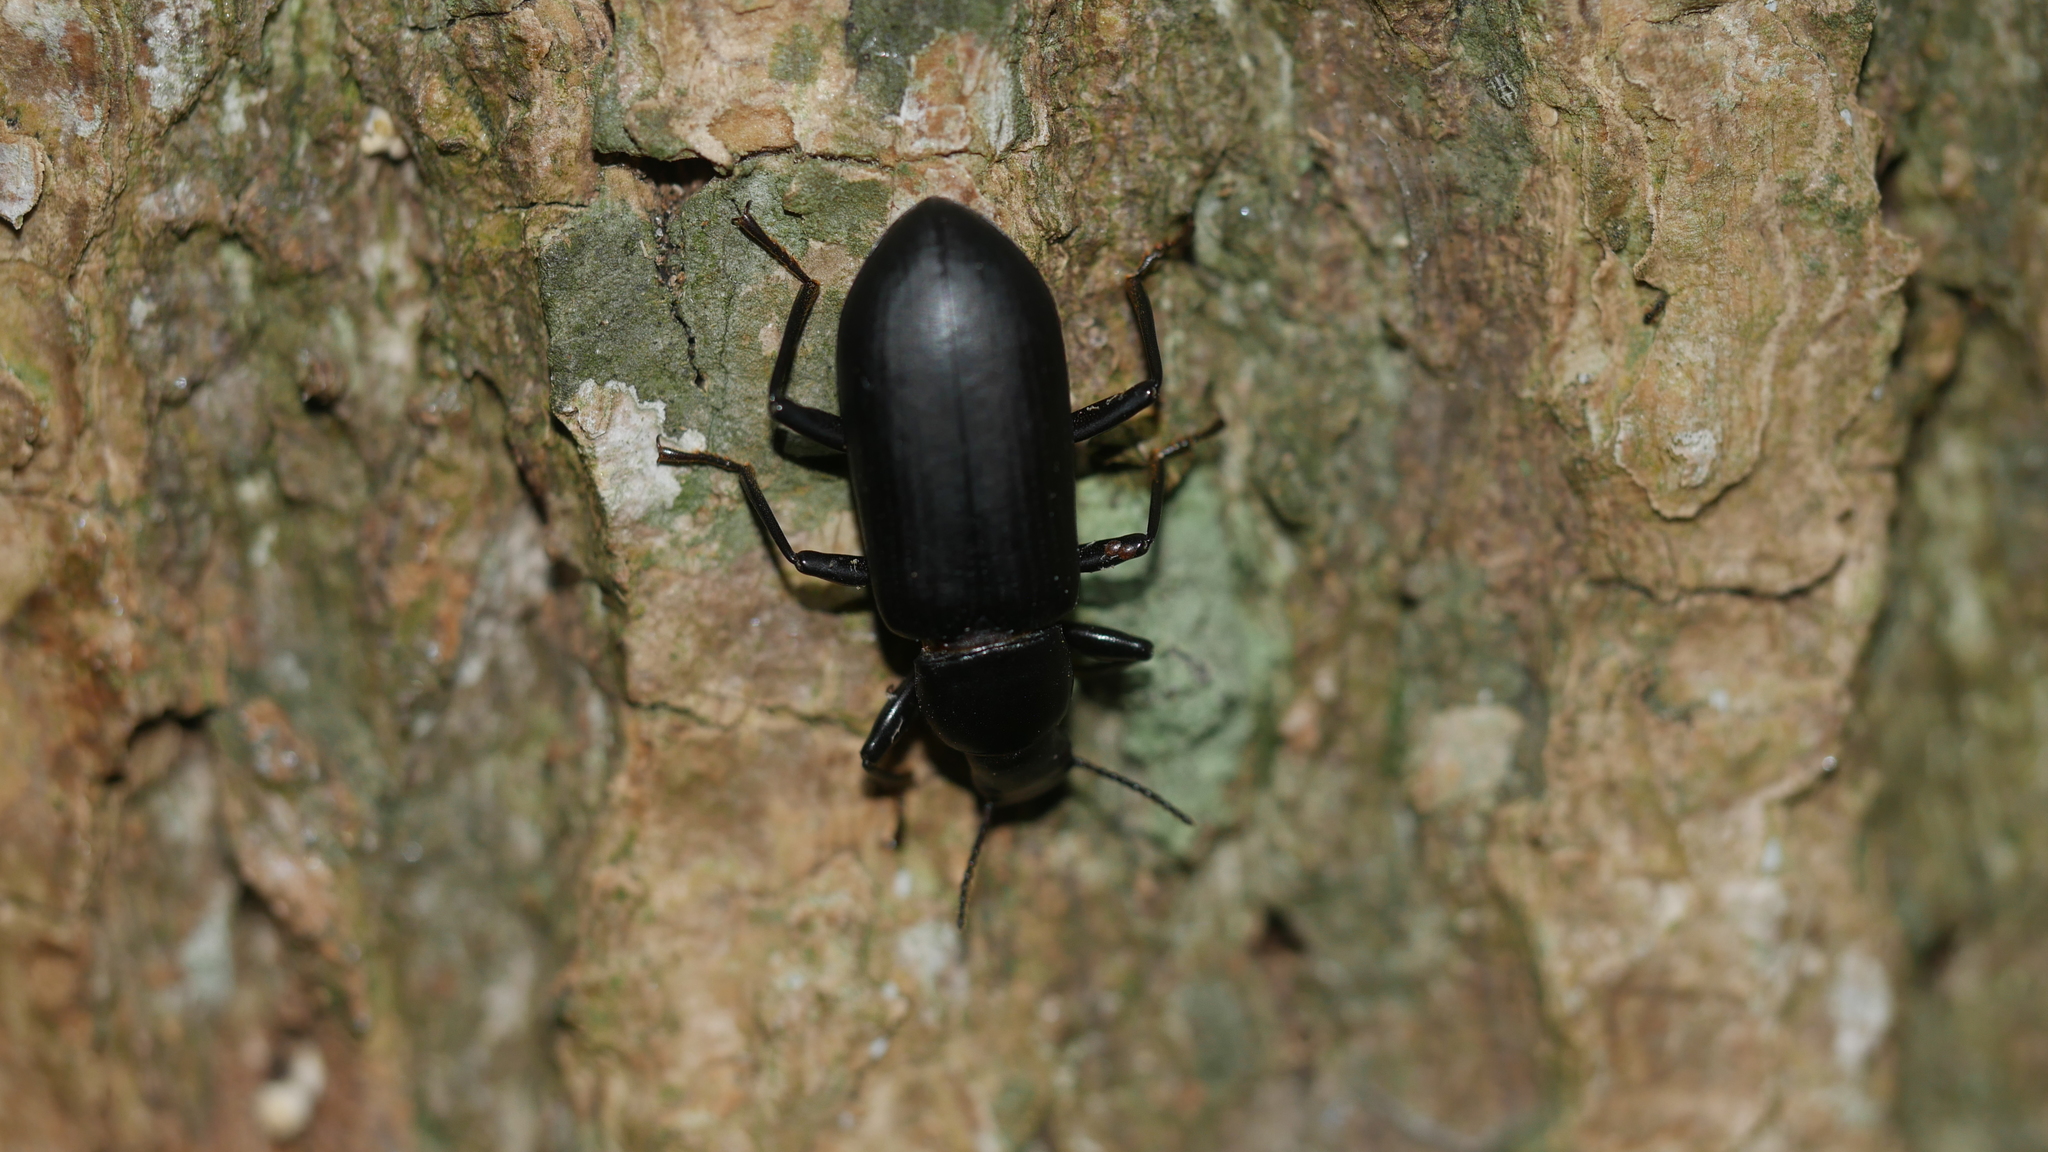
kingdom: Animalia
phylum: Arthropoda
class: Insecta
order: Coleoptera
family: Tenebrionidae
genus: Alobates
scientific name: Alobates
